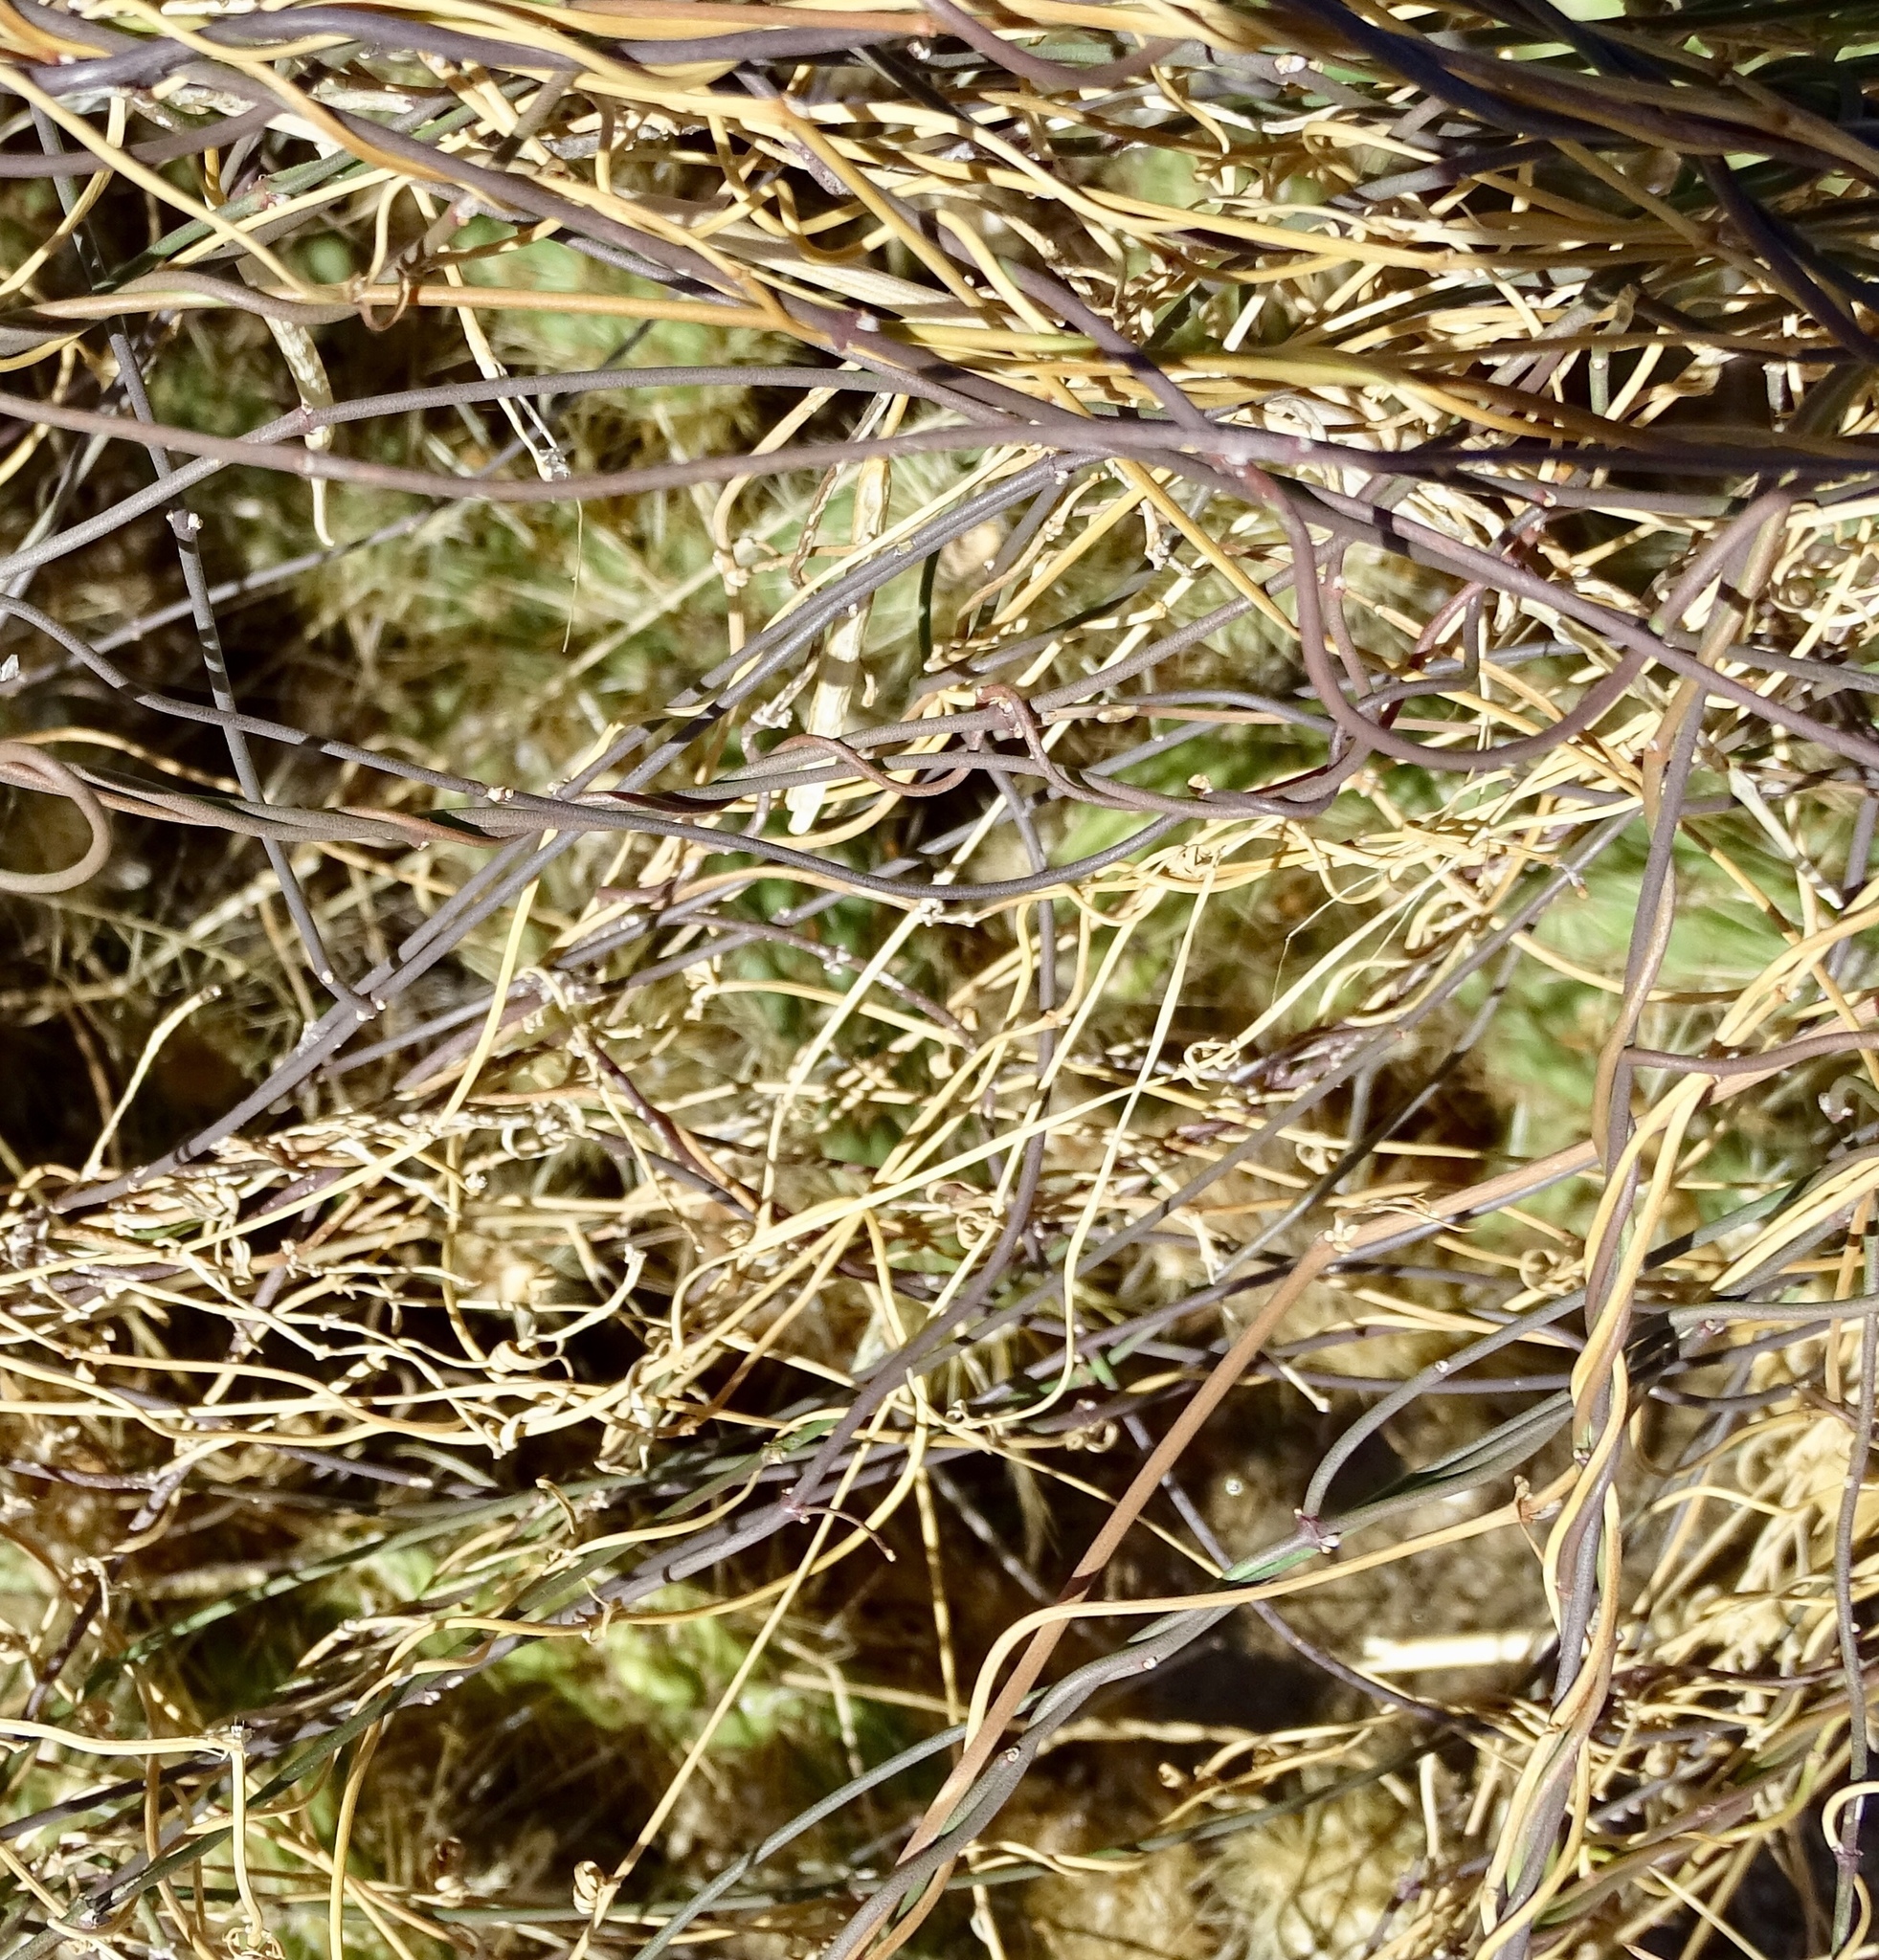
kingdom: Plantae
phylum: Tracheophyta
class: Magnoliopsida
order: Gentianales
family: Apocynaceae
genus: Funastrum
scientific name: Funastrum heterophyllum
